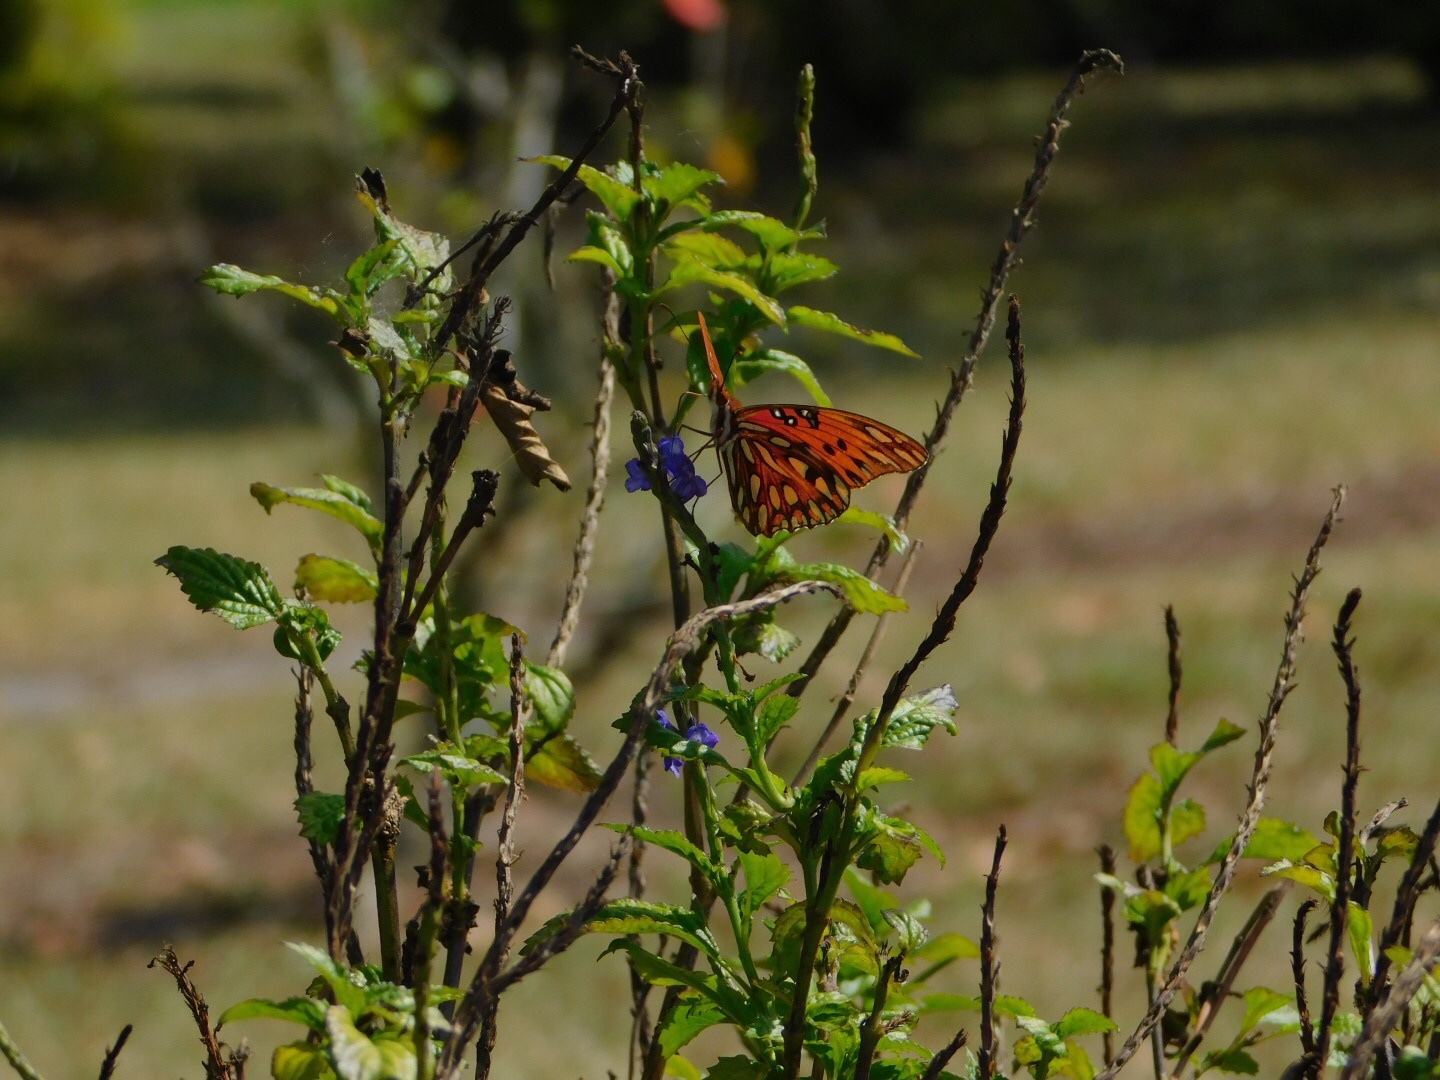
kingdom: Animalia
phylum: Arthropoda
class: Insecta
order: Lepidoptera
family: Nymphalidae
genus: Dione
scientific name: Dione vanillae
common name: Gulf fritillary
